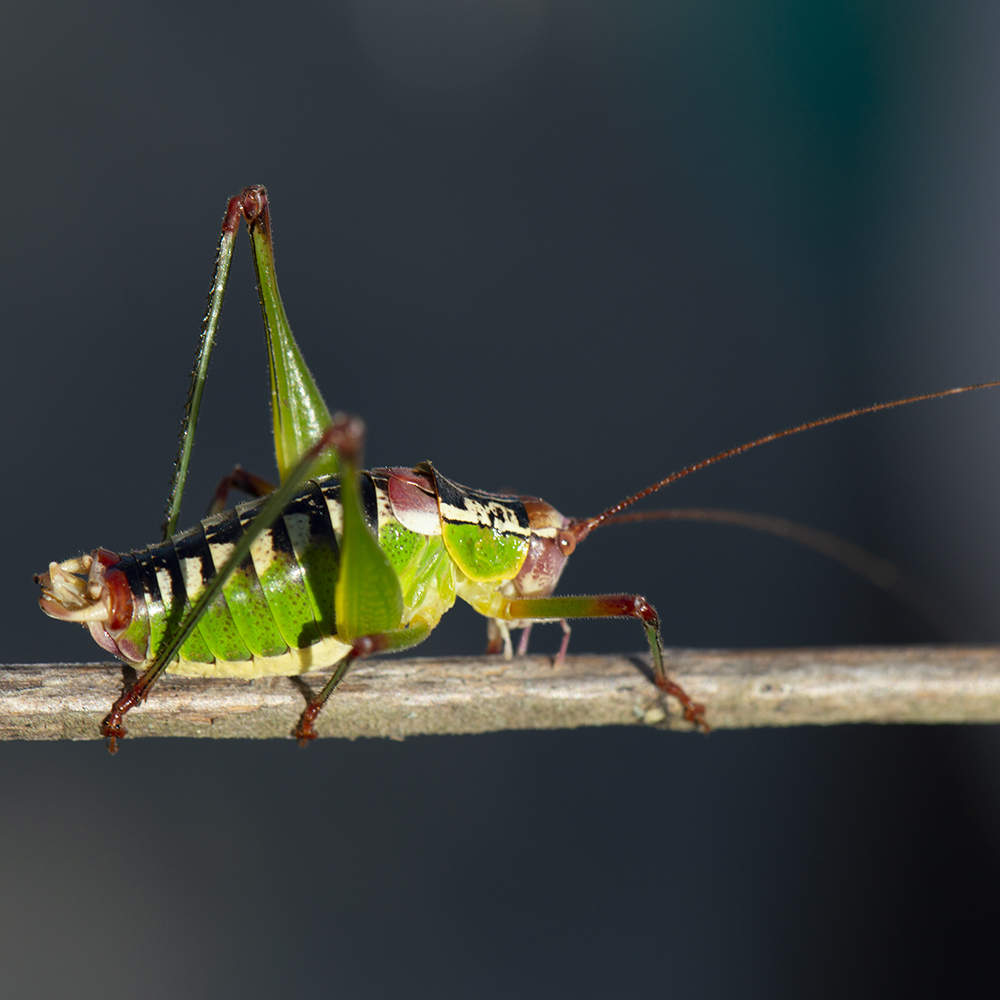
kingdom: Animalia
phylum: Arthropoda
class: Insecta
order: Orthoptera
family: Tettigoniidae
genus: Metaplastes
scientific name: Metaplastes ornatus
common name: Balkan ornate bush-cricket
